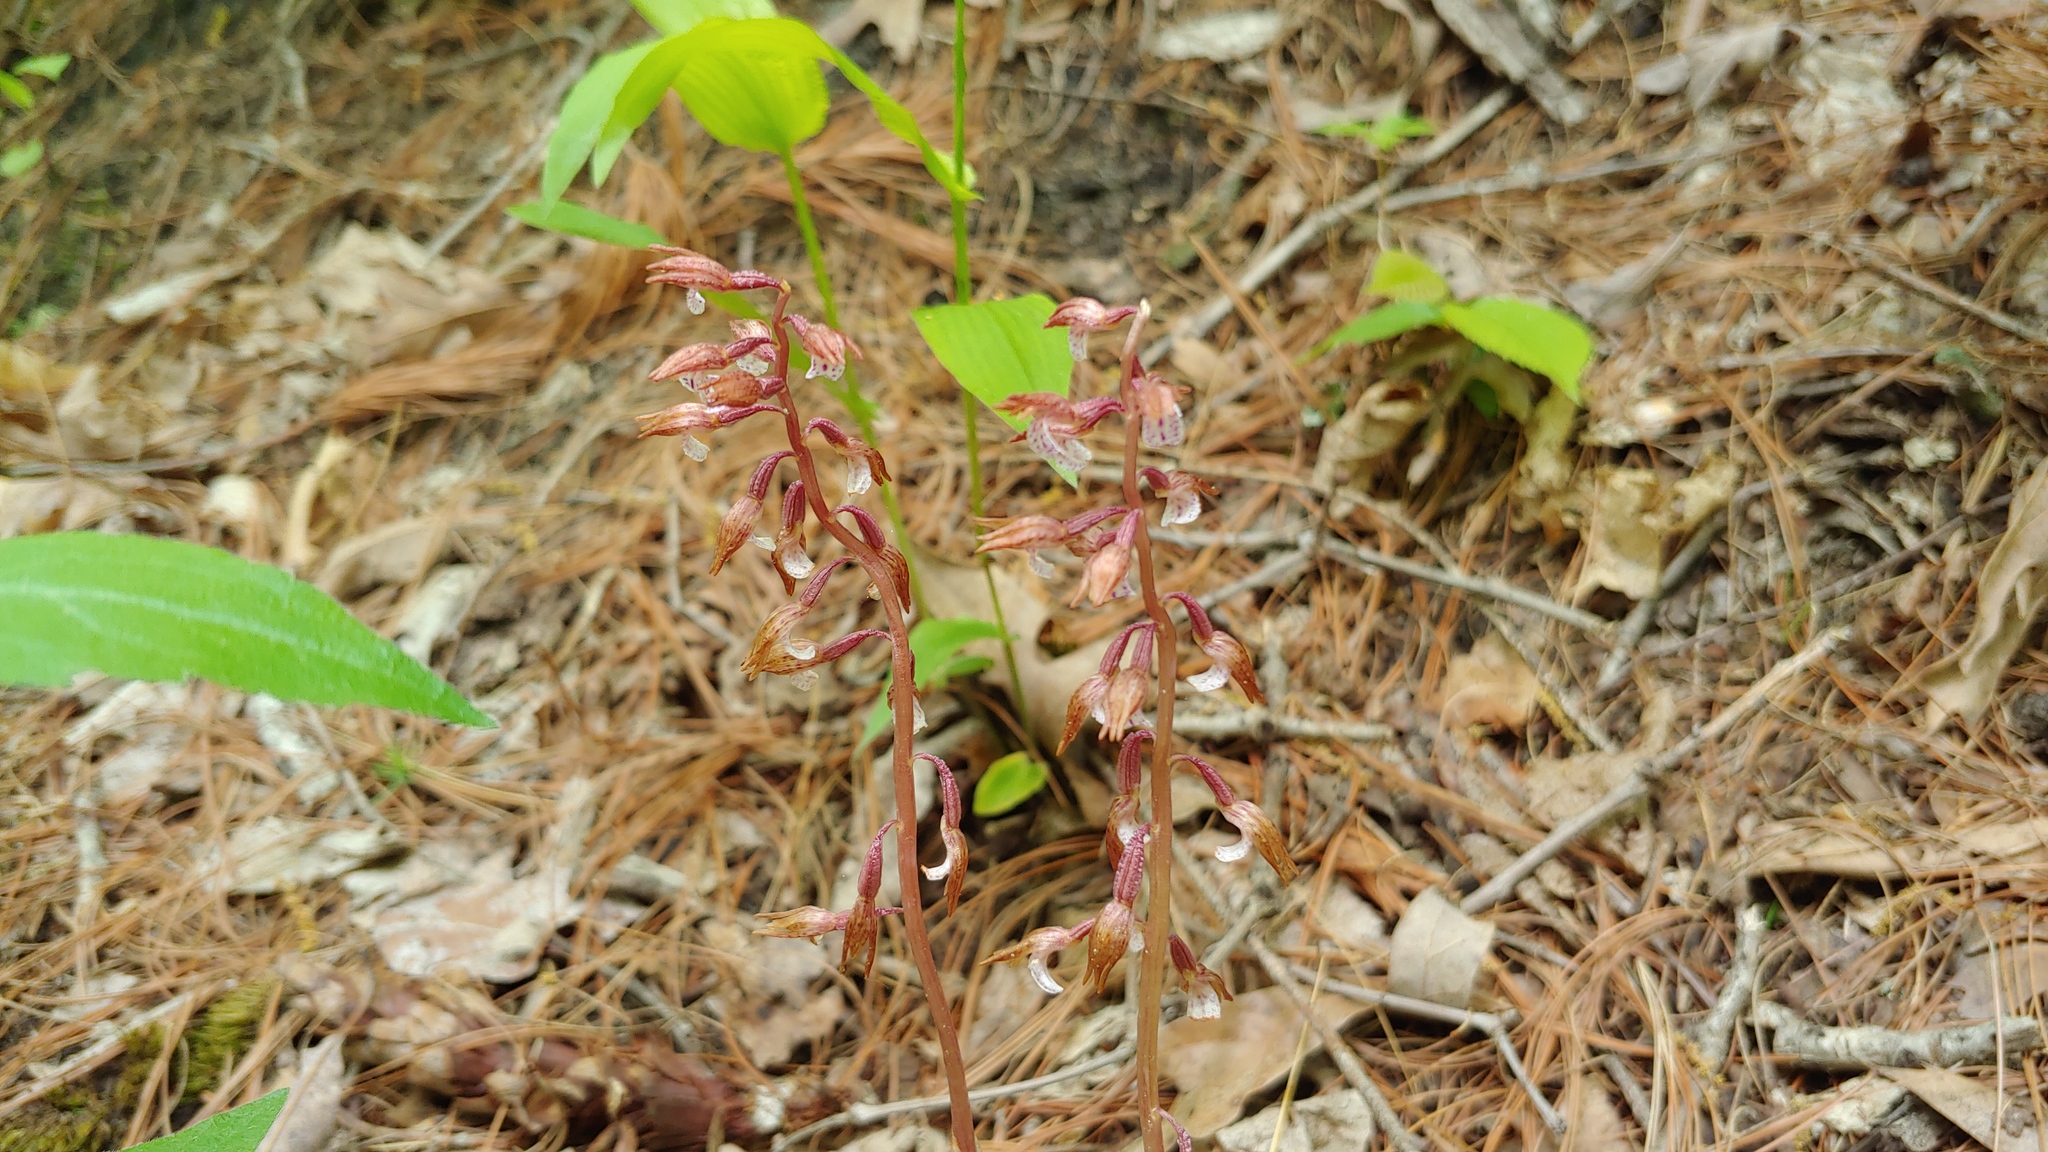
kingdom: Plantae
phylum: Tracheophyta
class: Liliopsida
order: Asparagales
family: Orchidaceae
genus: Corallorhiza
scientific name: Corallorhiza wisteriana
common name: Spring coralroot
